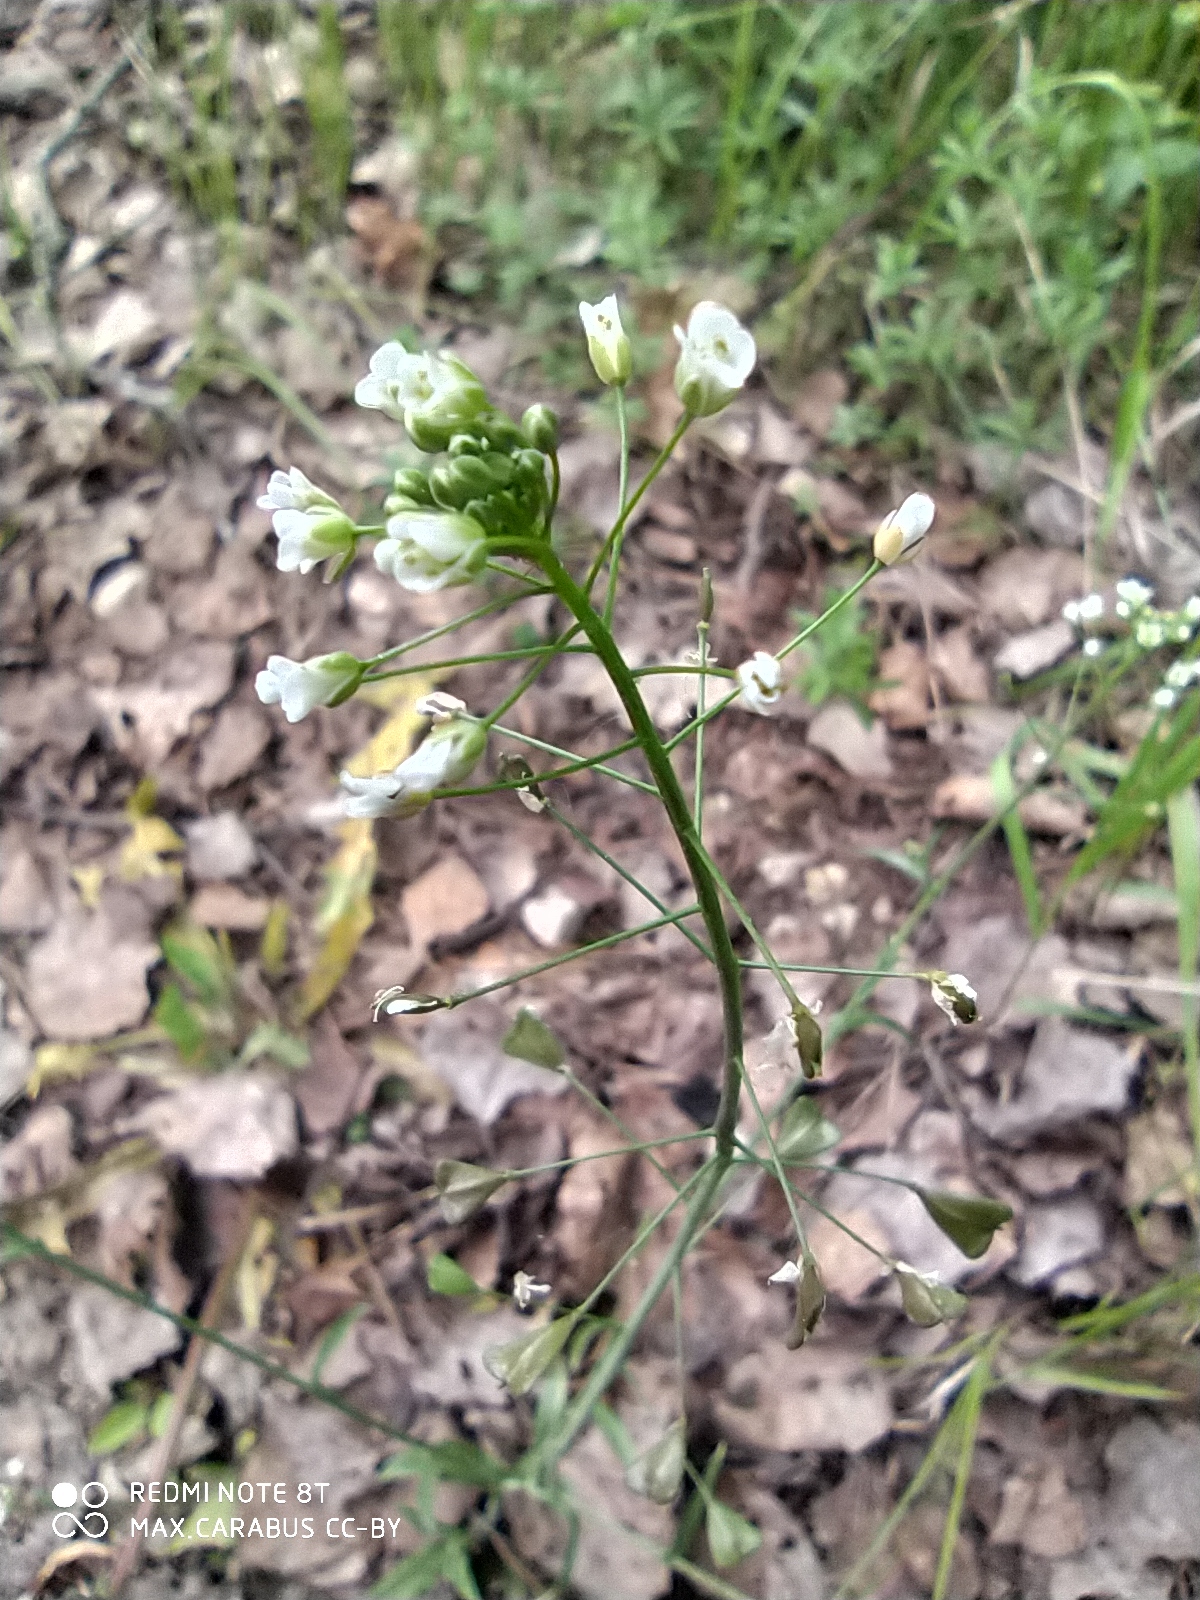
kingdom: Plantae
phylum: Tracheophyta
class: Magnoliopsida
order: Brassicales
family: Brassicaceae
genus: Capsella
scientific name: Capsella bursa-pastoris
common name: Shepherd's purse
